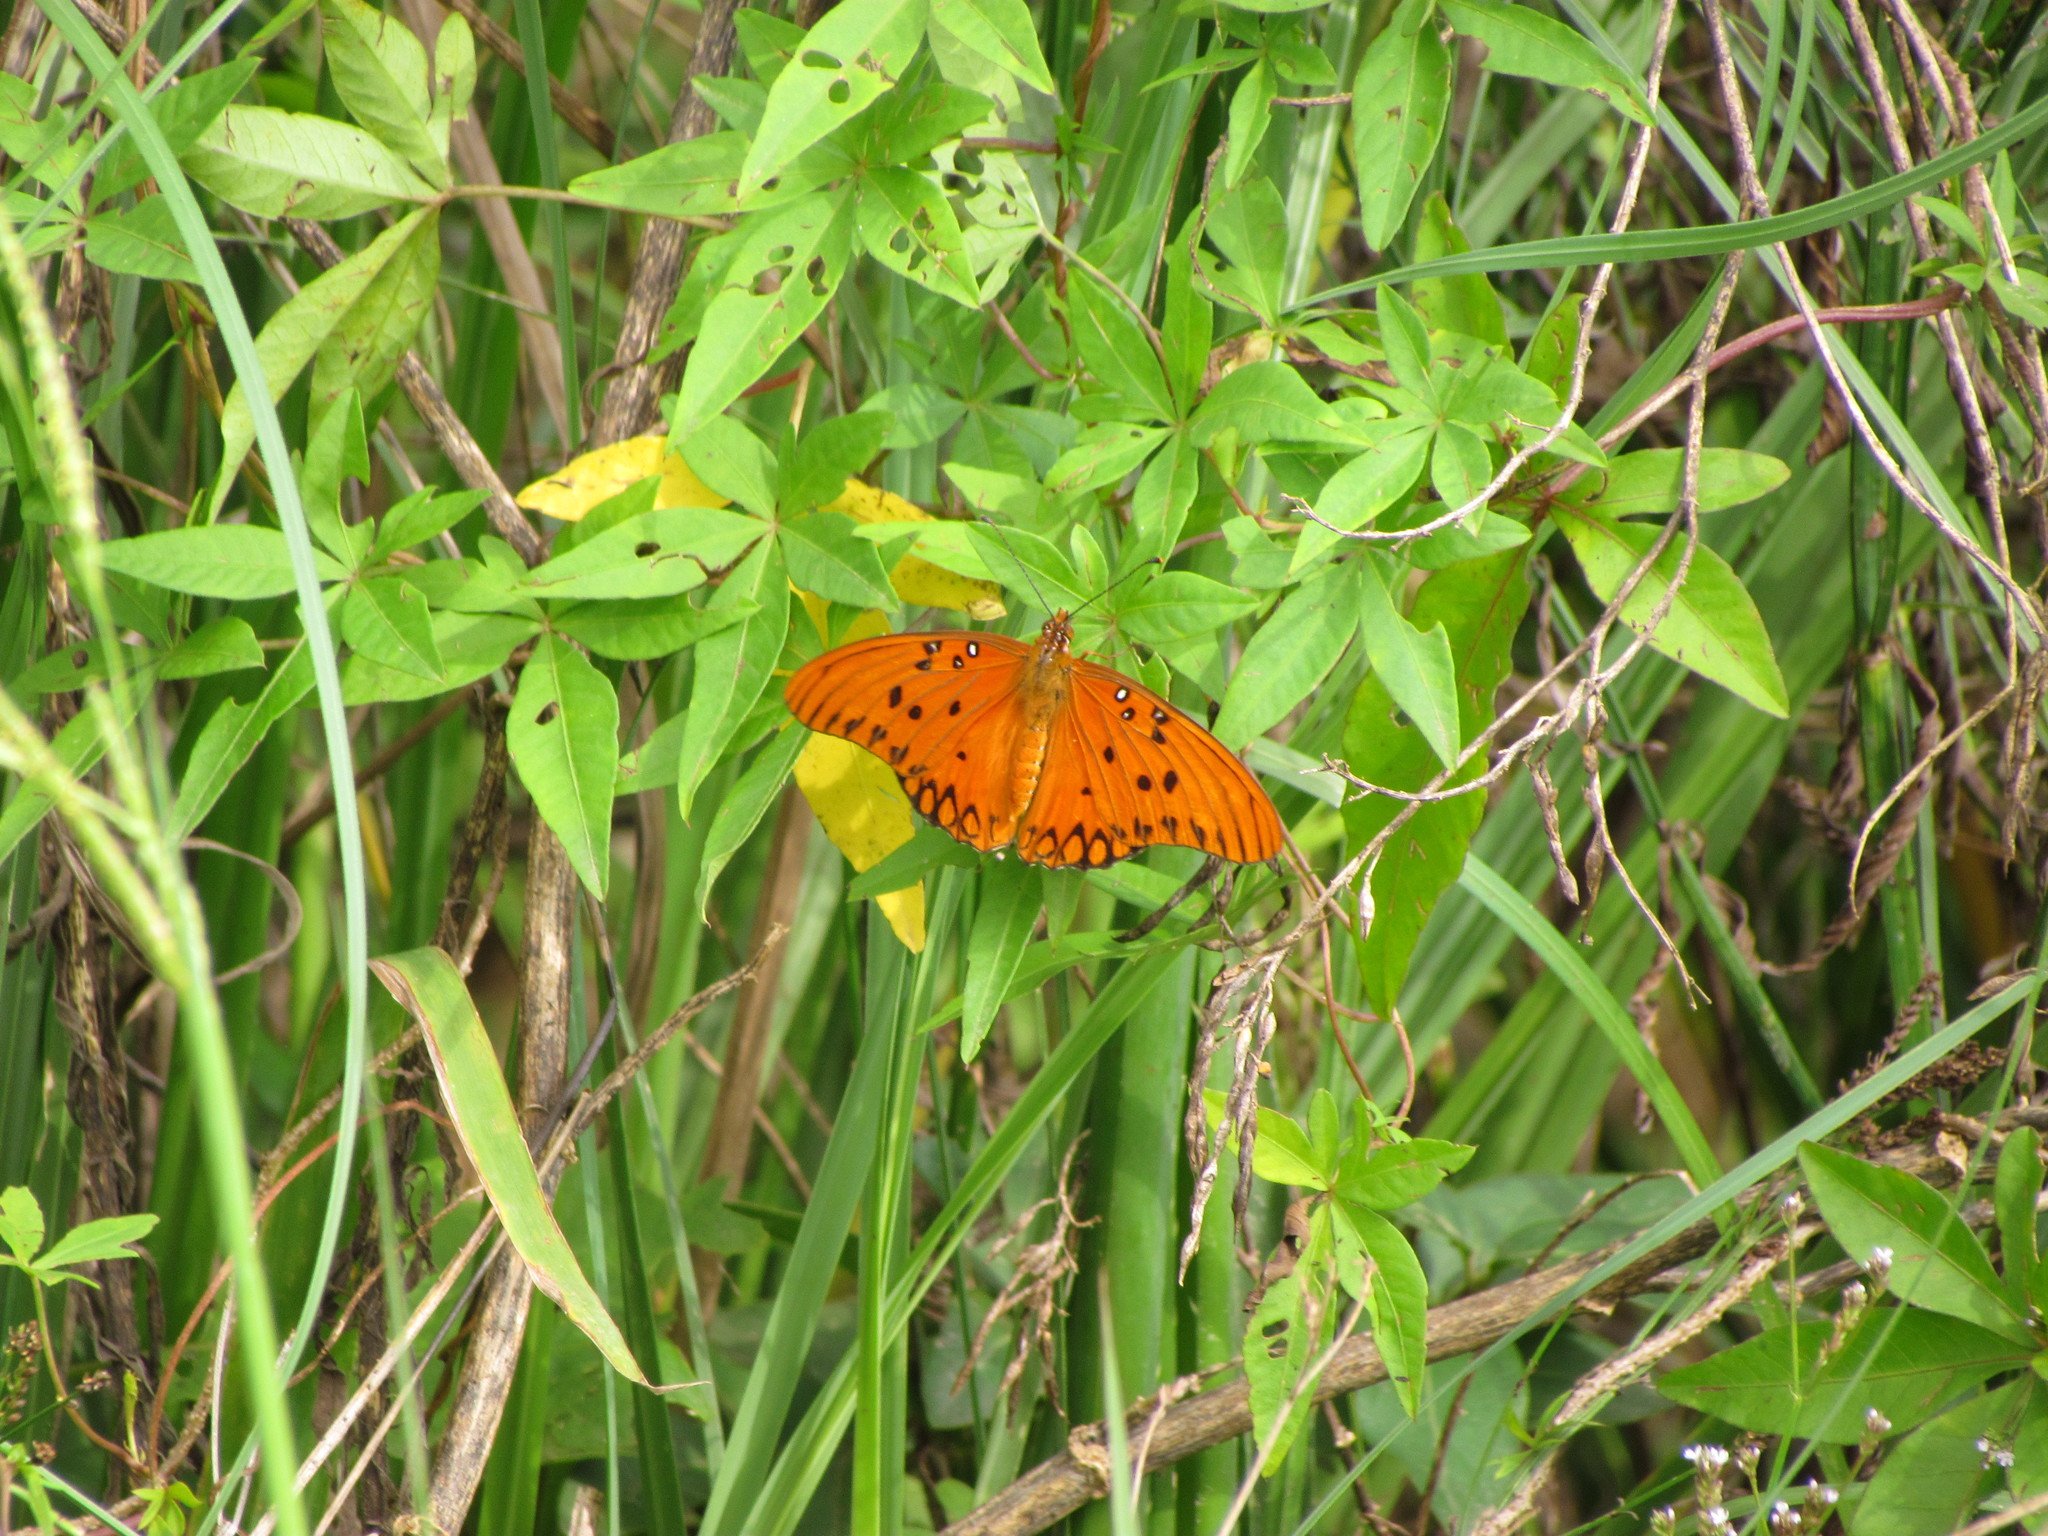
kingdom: Animalia
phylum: Arthropoda
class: Insecta
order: Lepidoptera
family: Nymphalidae
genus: Dione
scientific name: Dione vanillae
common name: Gulf fritillary
